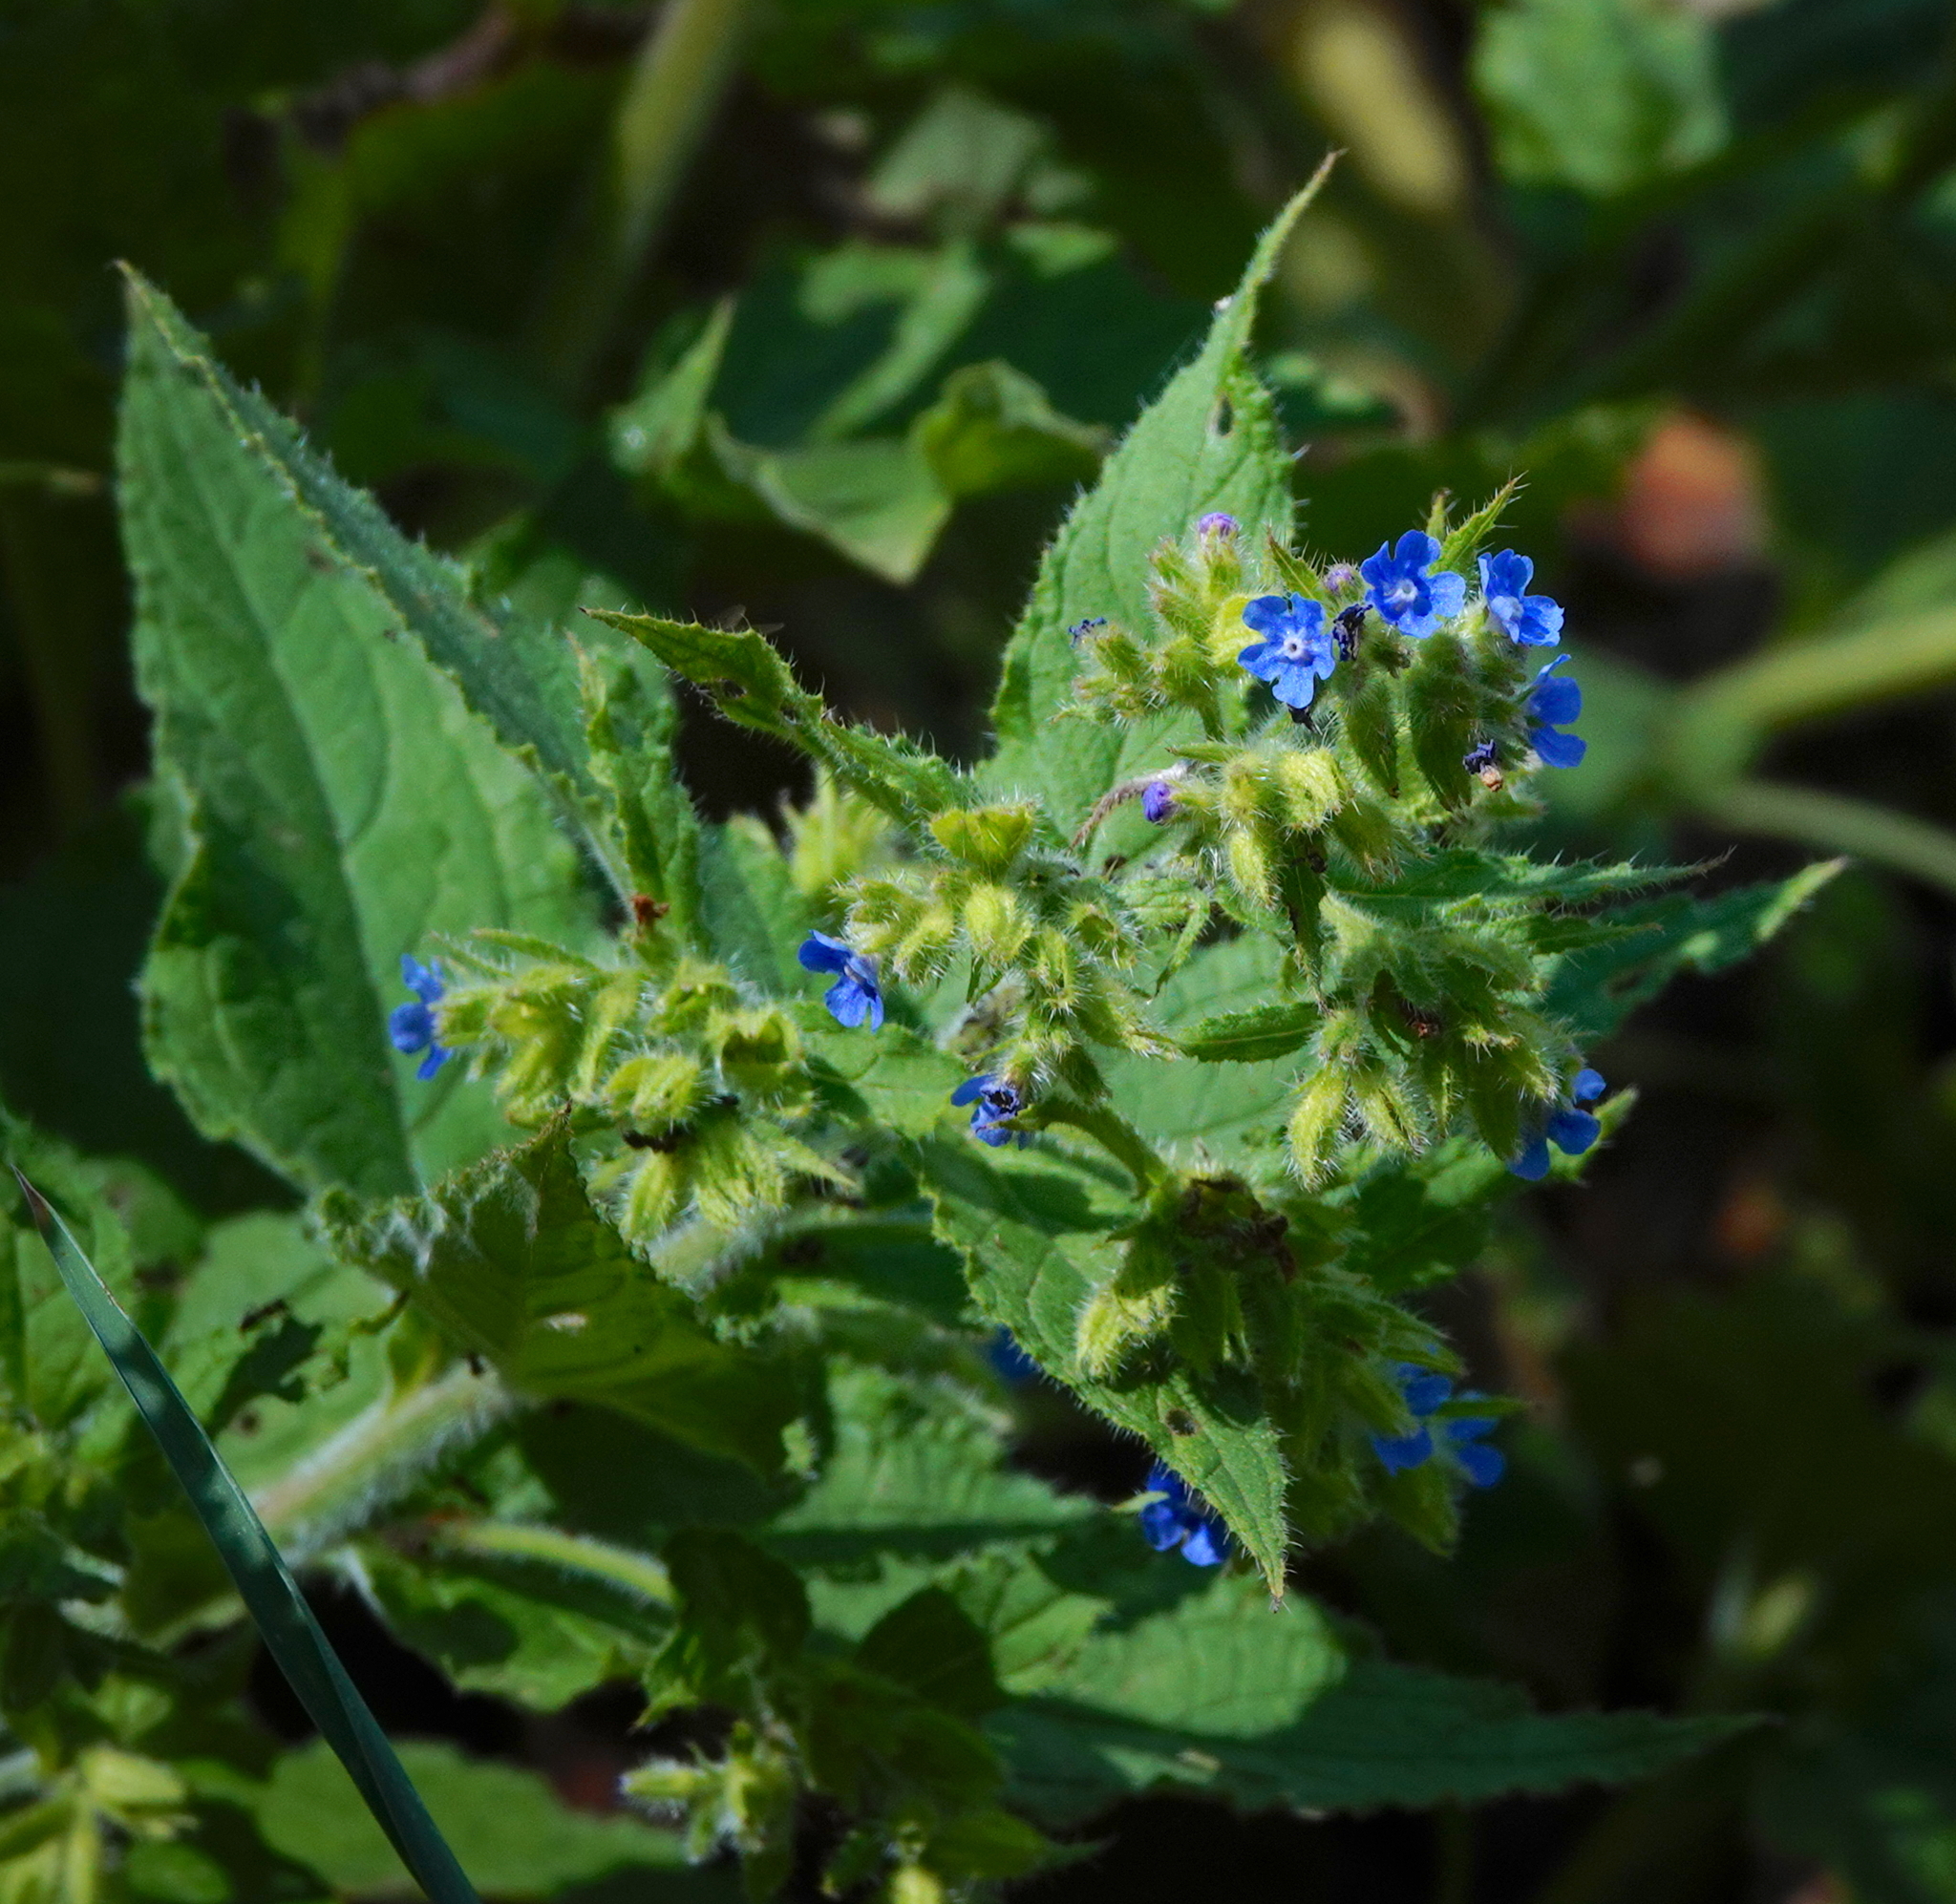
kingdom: Plantae
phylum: Tracheophyta
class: Magnoliopsida
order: Boraginales
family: Boraginaceae
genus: Pentaglottis
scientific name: Pentaglottis sempervirens
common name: Green alkanet
